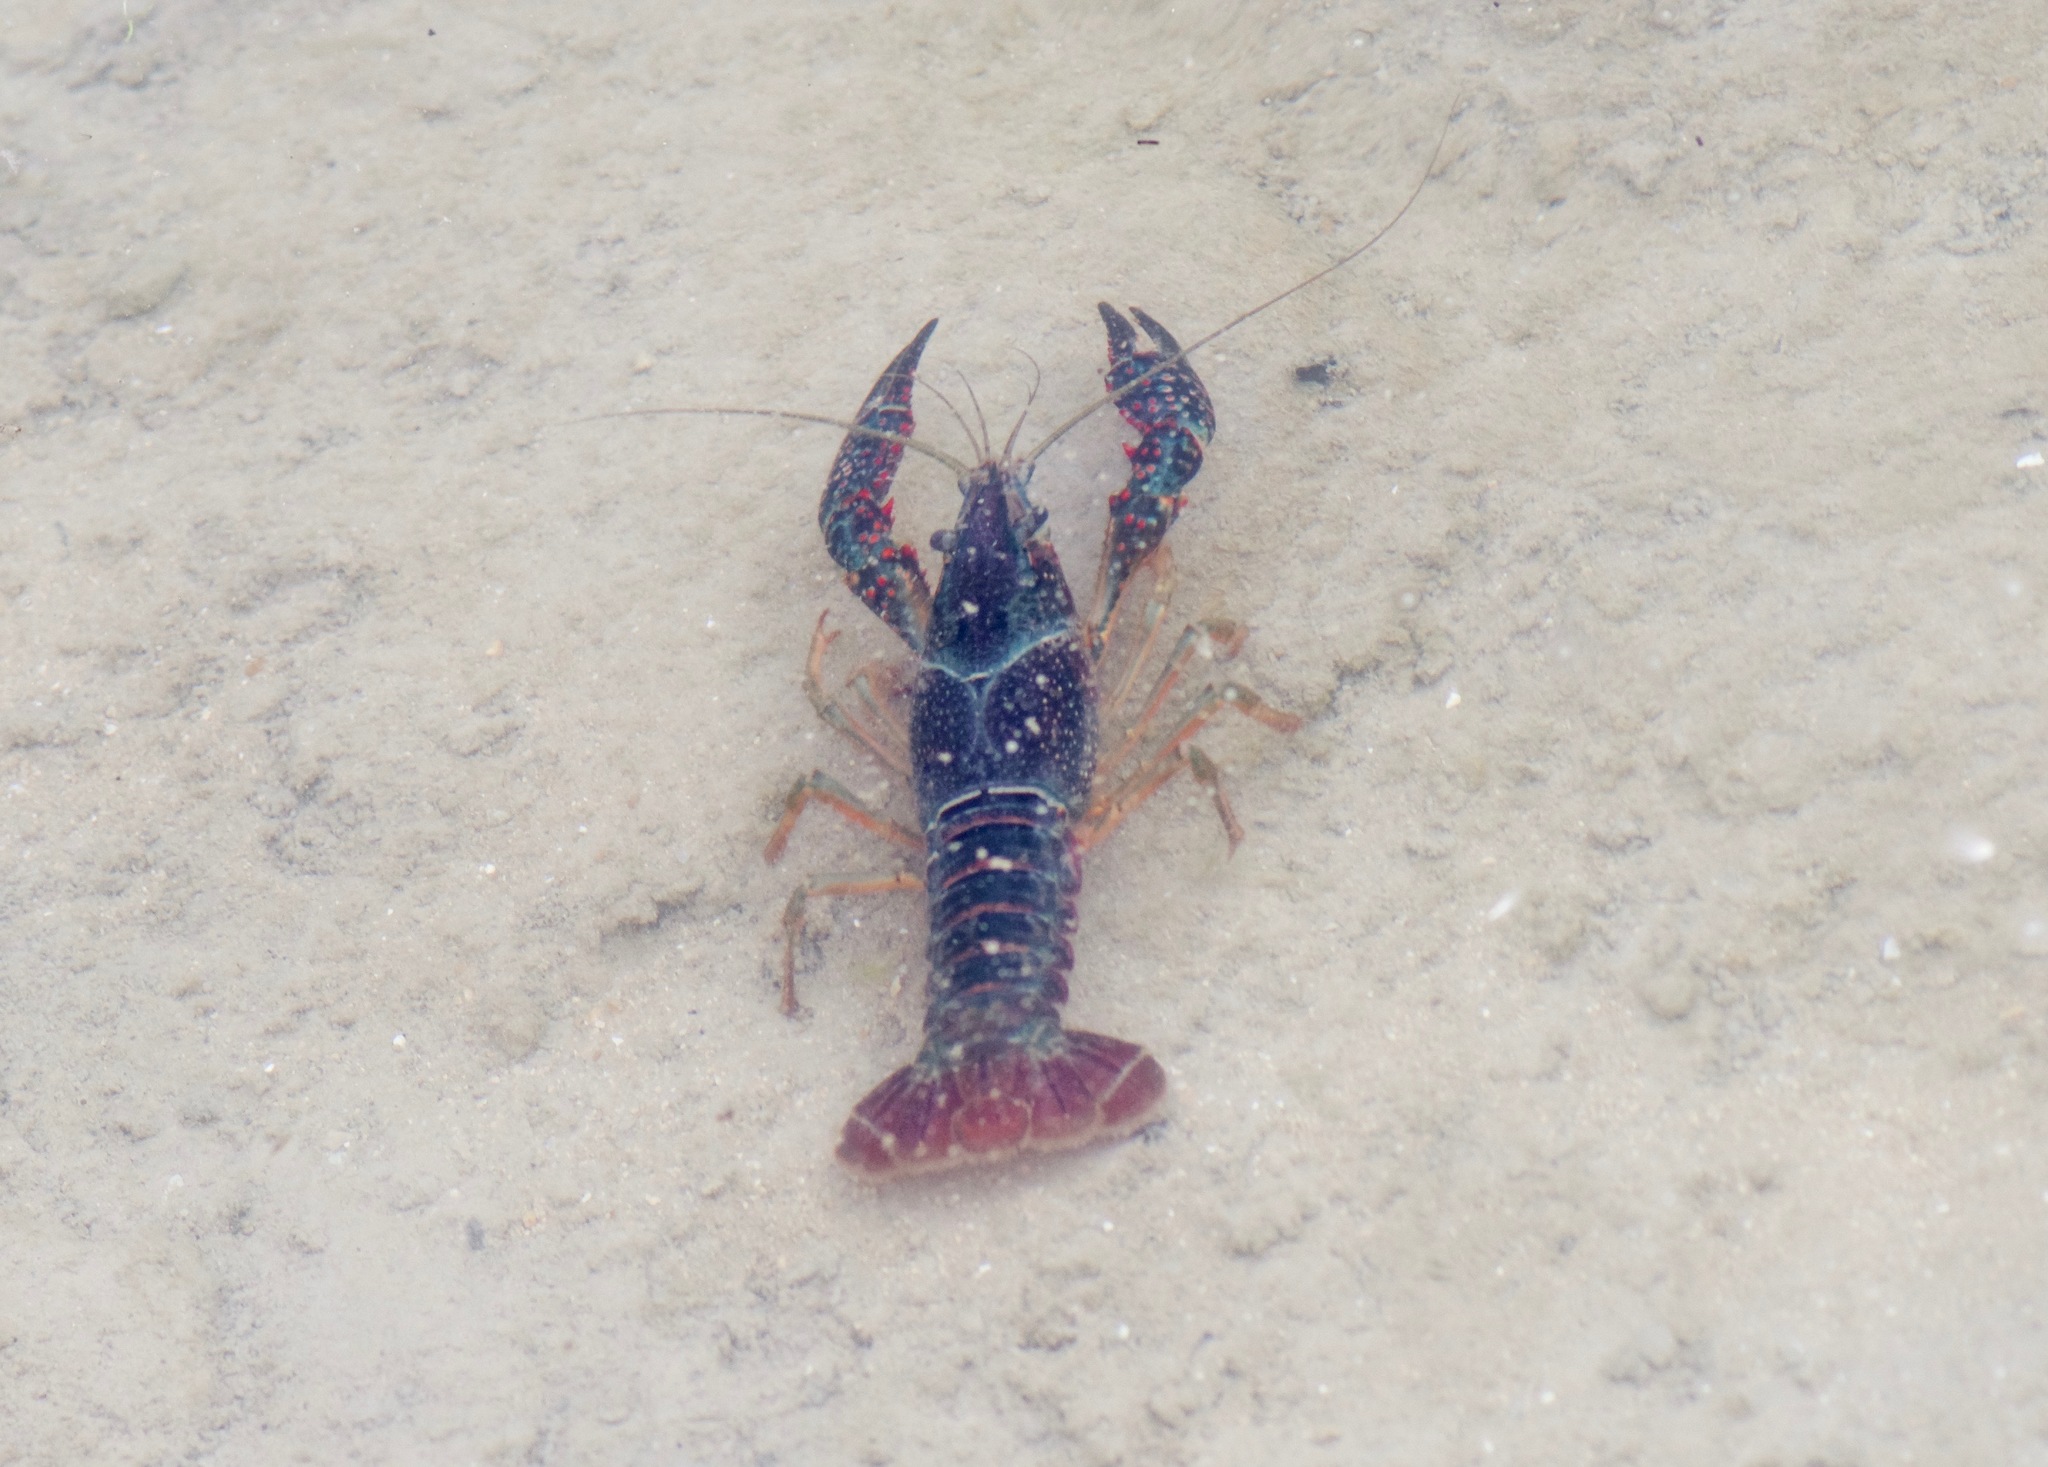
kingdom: Animalia
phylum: Arthropoda
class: Malacostraca
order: Decapoda
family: Cambaridae
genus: Procambarus
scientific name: Procambarus clarkii
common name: Red swamp crayfish
